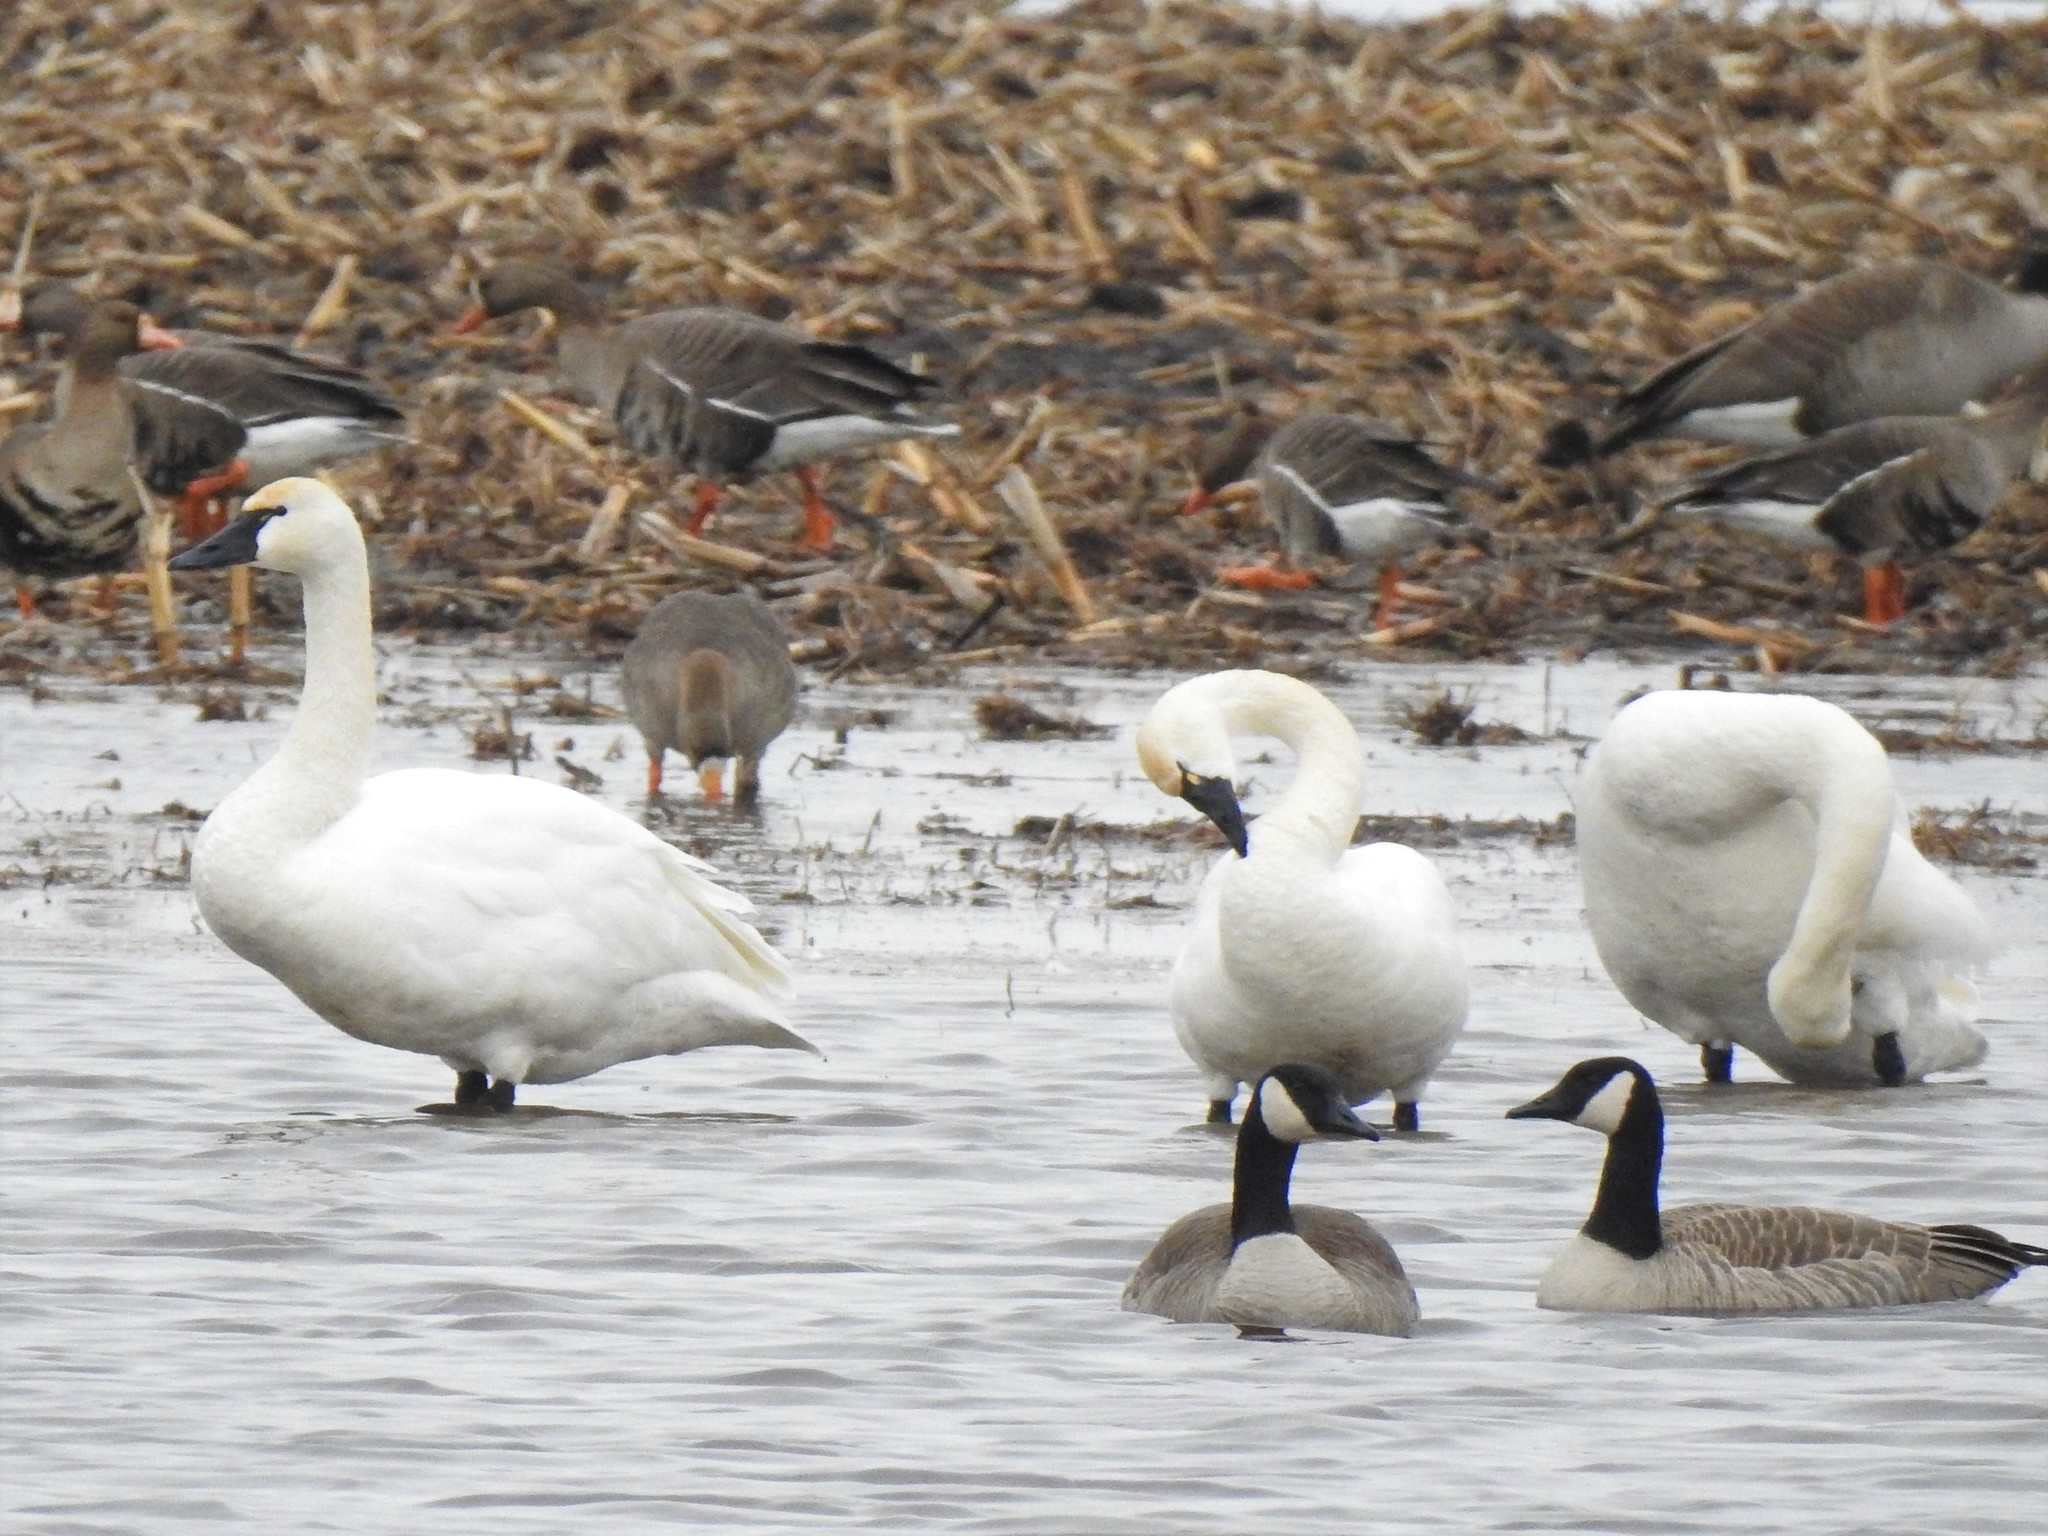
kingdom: Animalia
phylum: Chordata
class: Aves
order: Anseriformes
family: Anatidae
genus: Cygnus
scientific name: Cygnus columbianus
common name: Tundra swan
